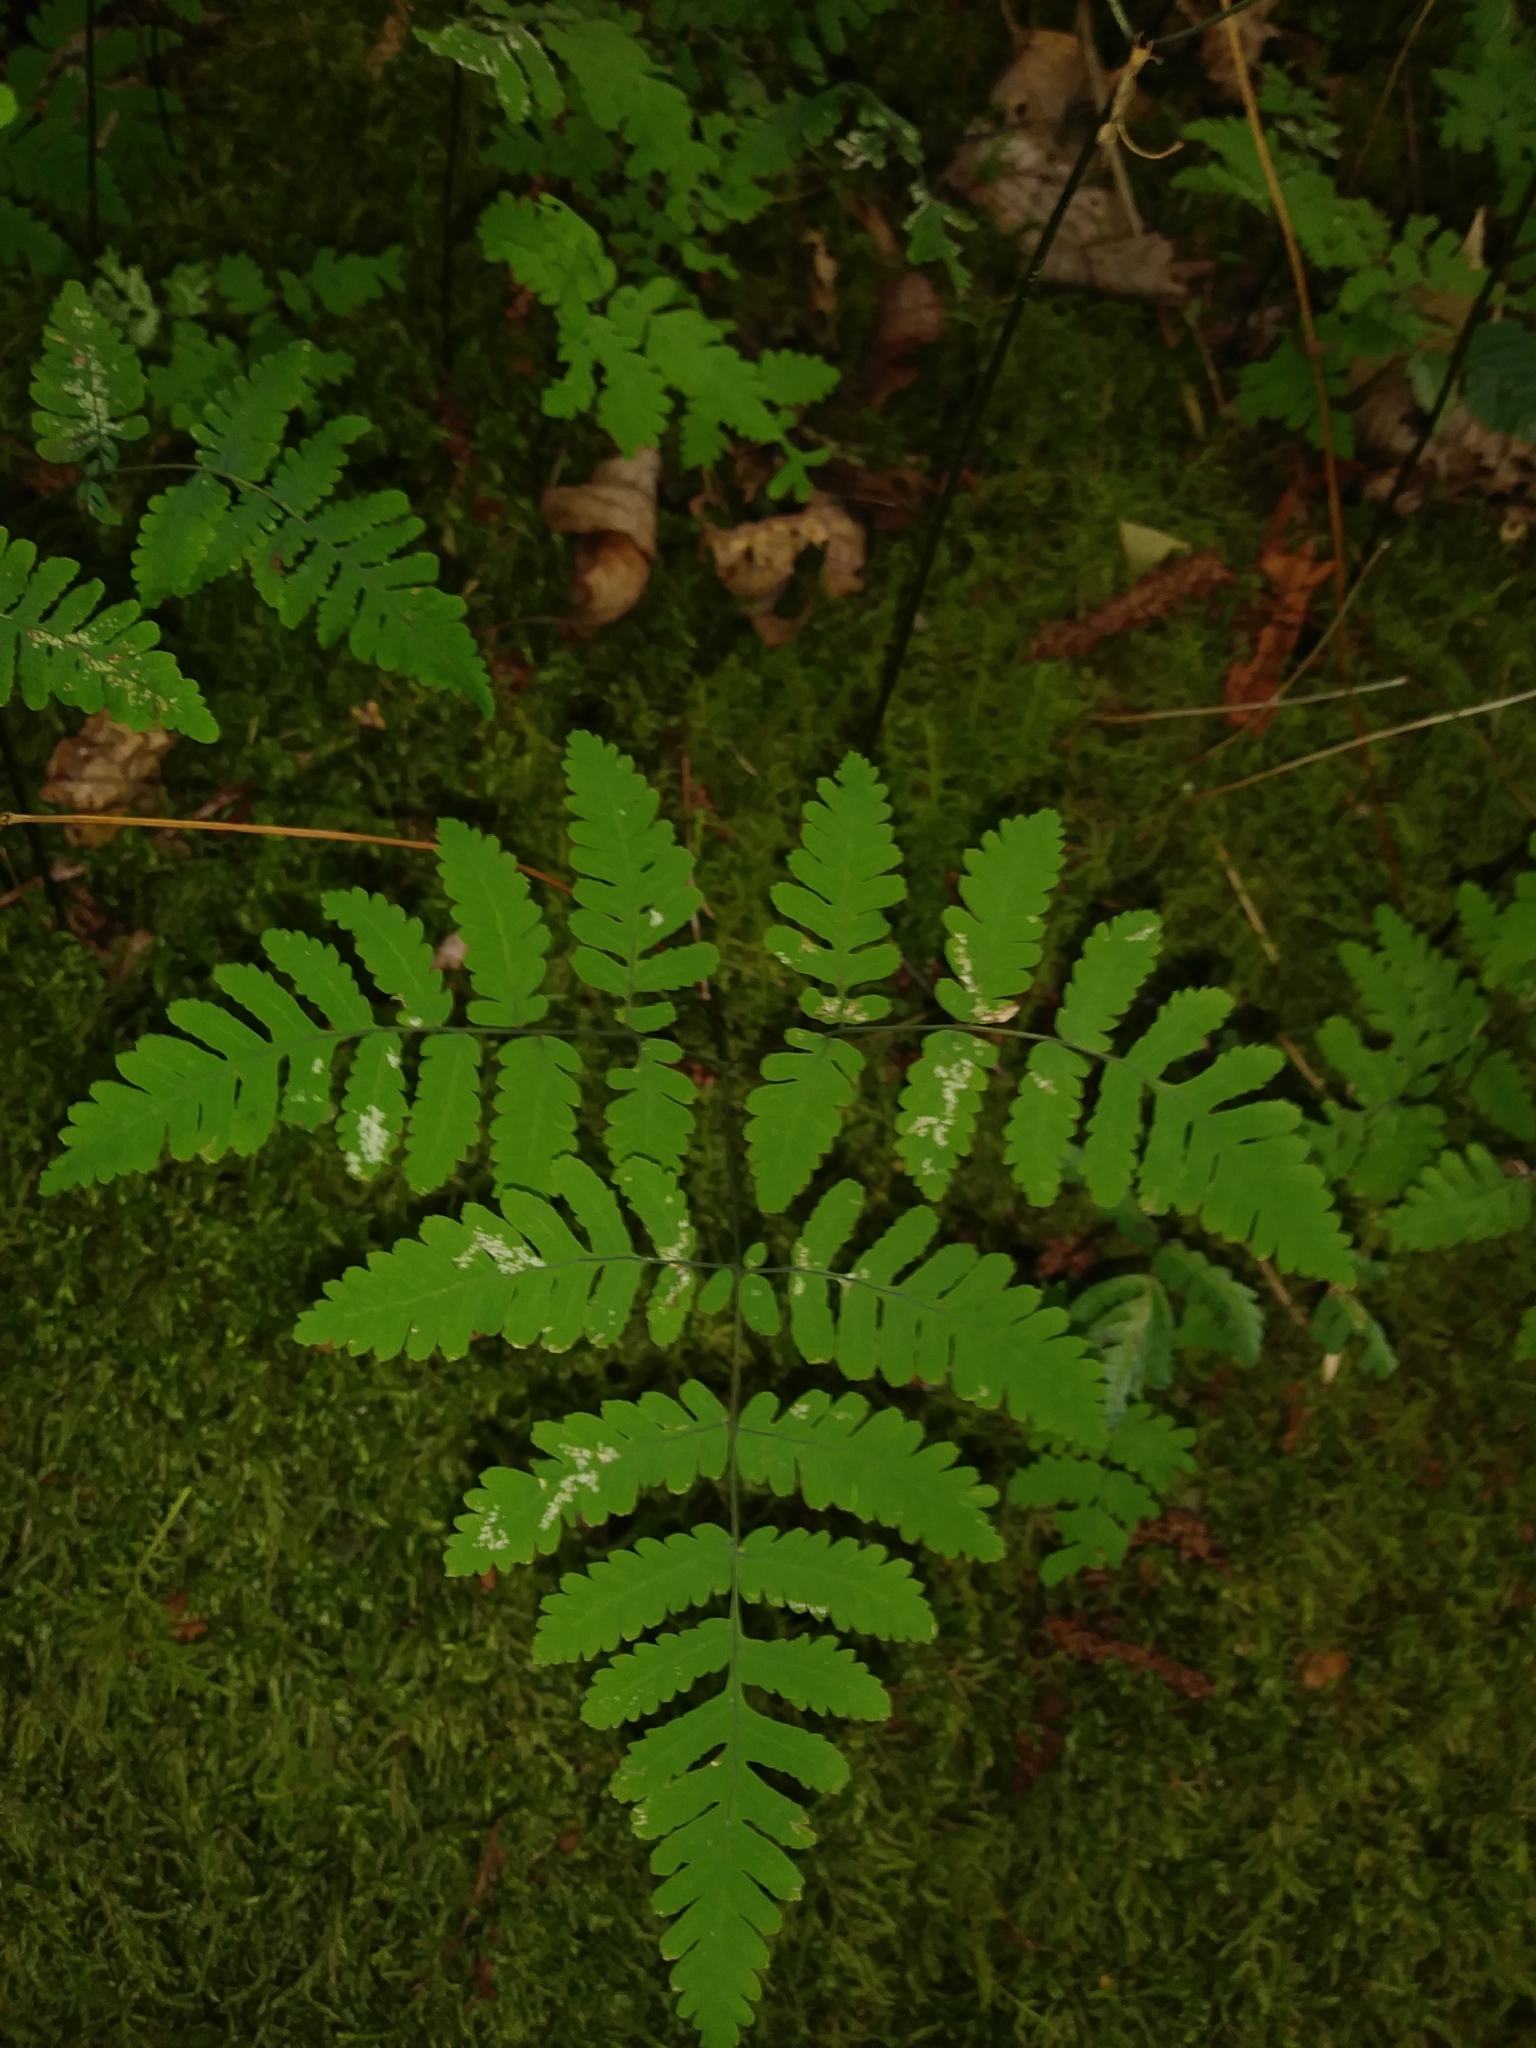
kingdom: Plantae
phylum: Tracheophyta
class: Polypodiopsida
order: Polypodiales
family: Cystopteridaceae
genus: Gymnocarpium
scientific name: Gymnocarpium appalachianum
